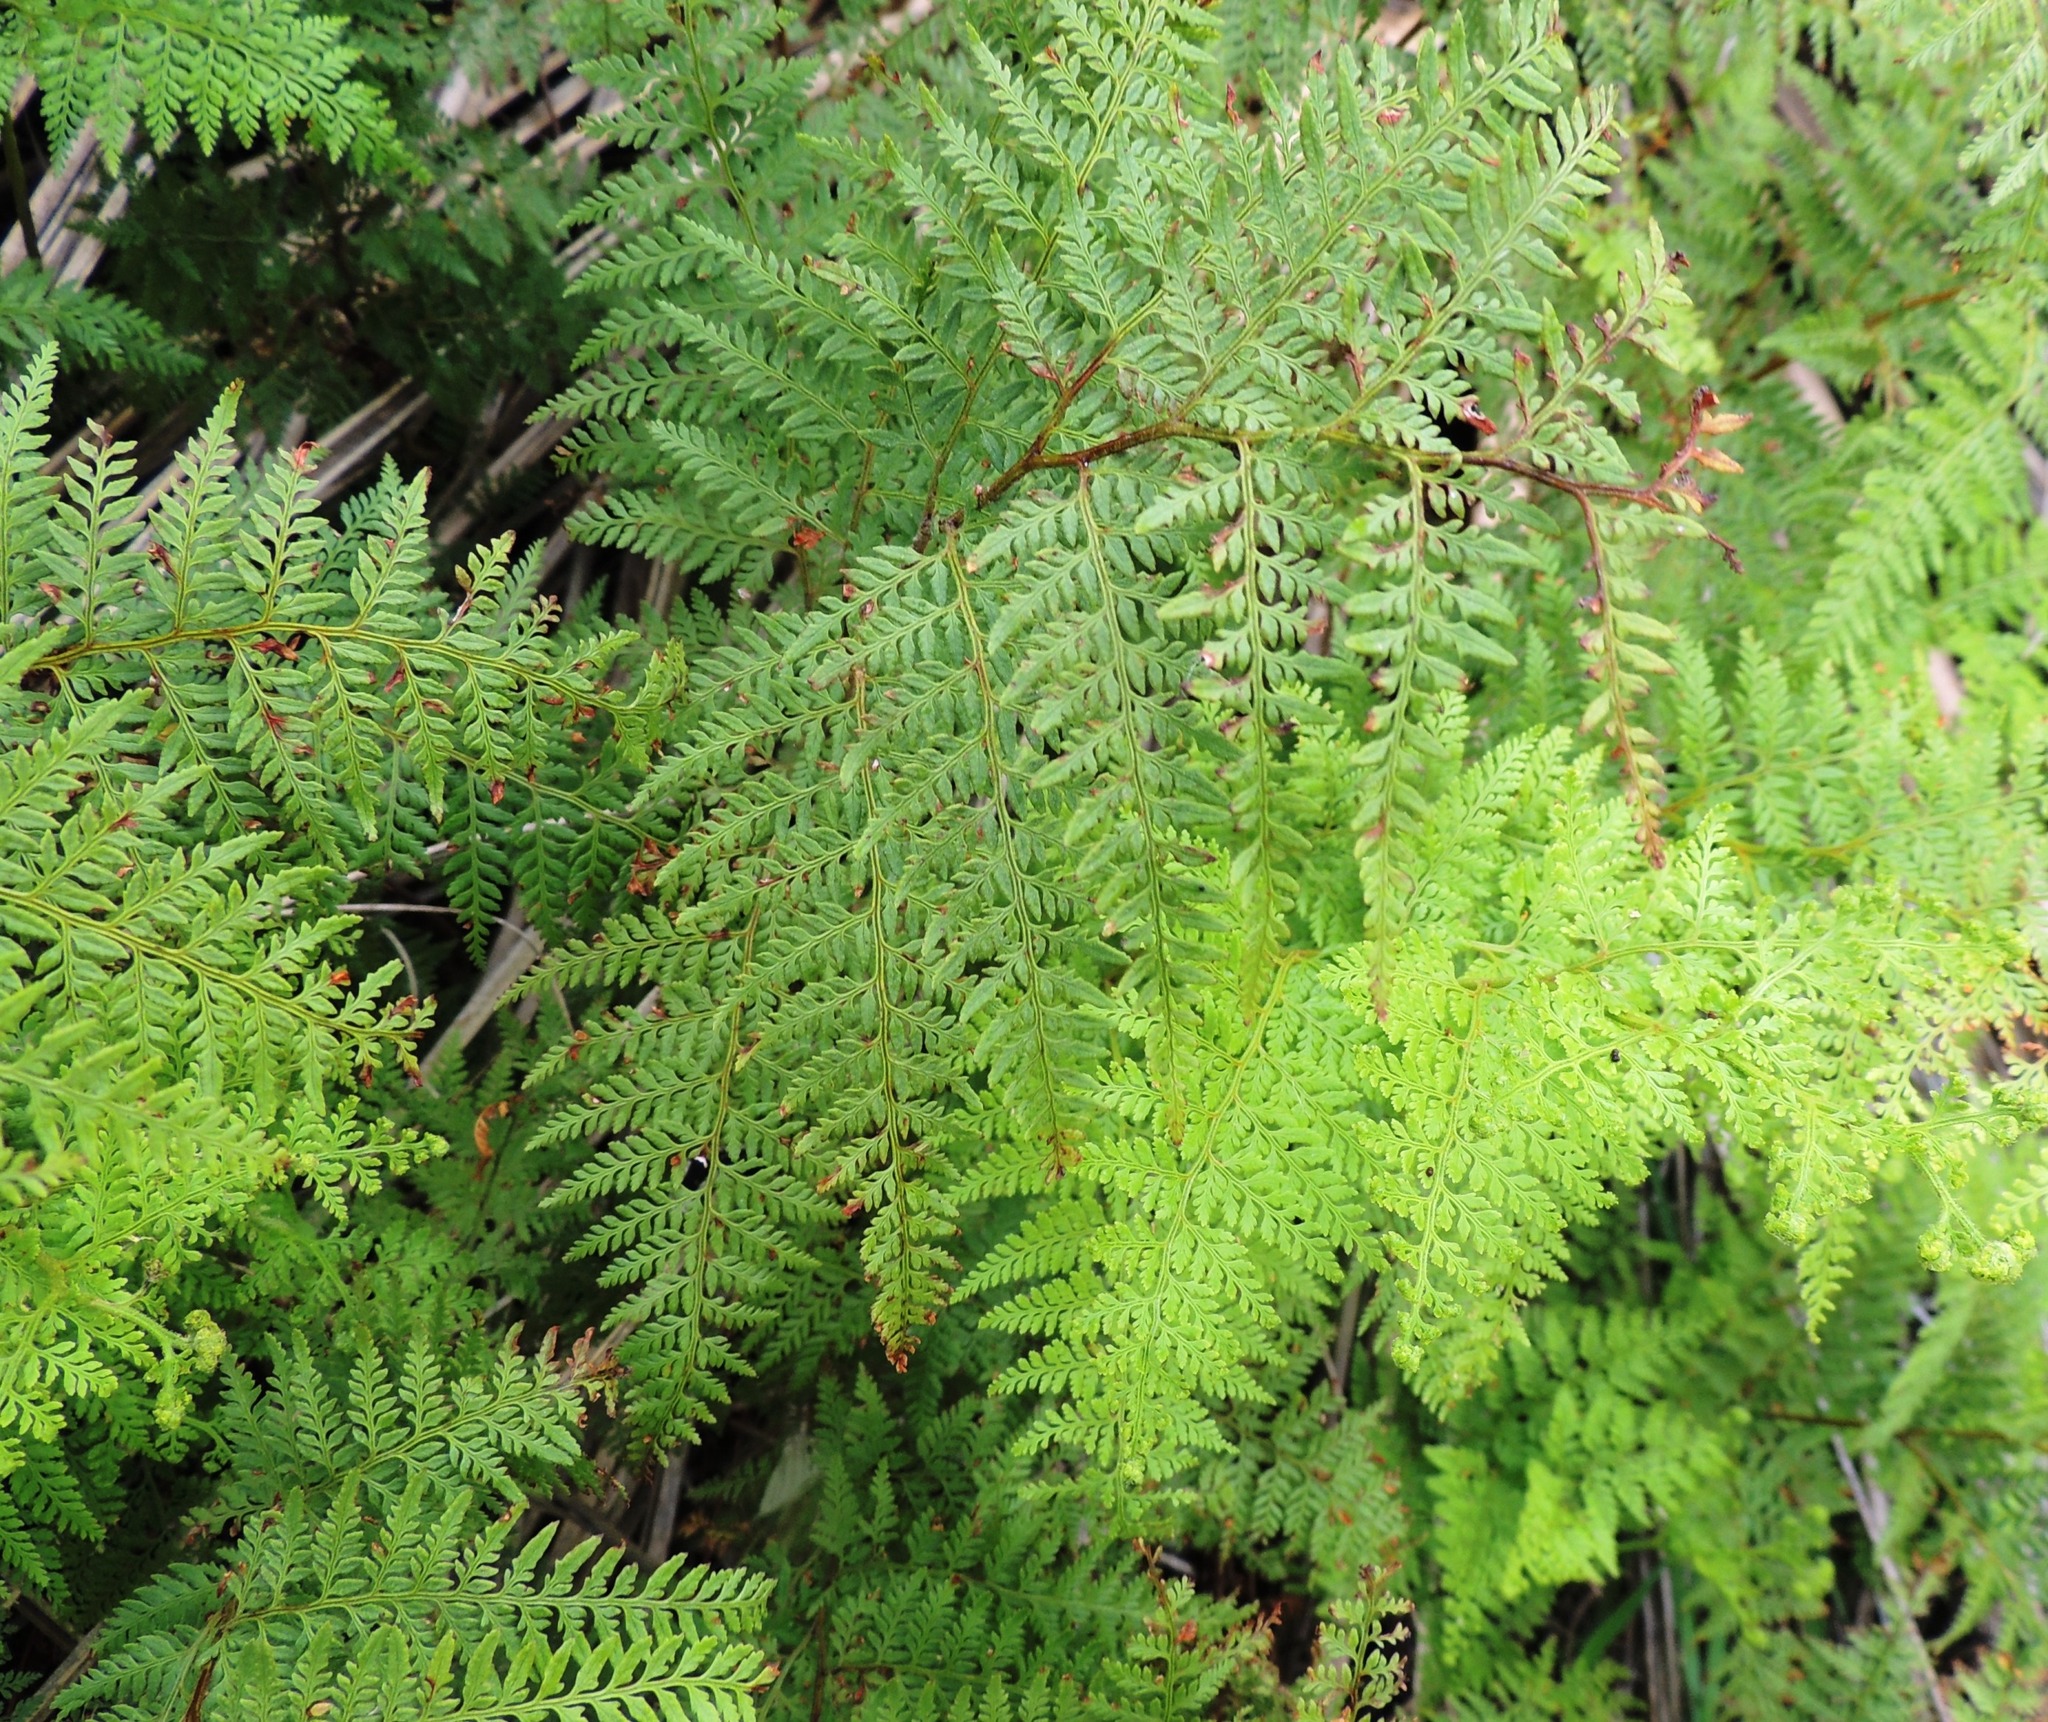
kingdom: Plantae
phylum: Tracheophyta
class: Polypodiopsida
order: Polypodiales
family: Dennstaedtiaceae
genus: Paesia
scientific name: Paesia scaberula
